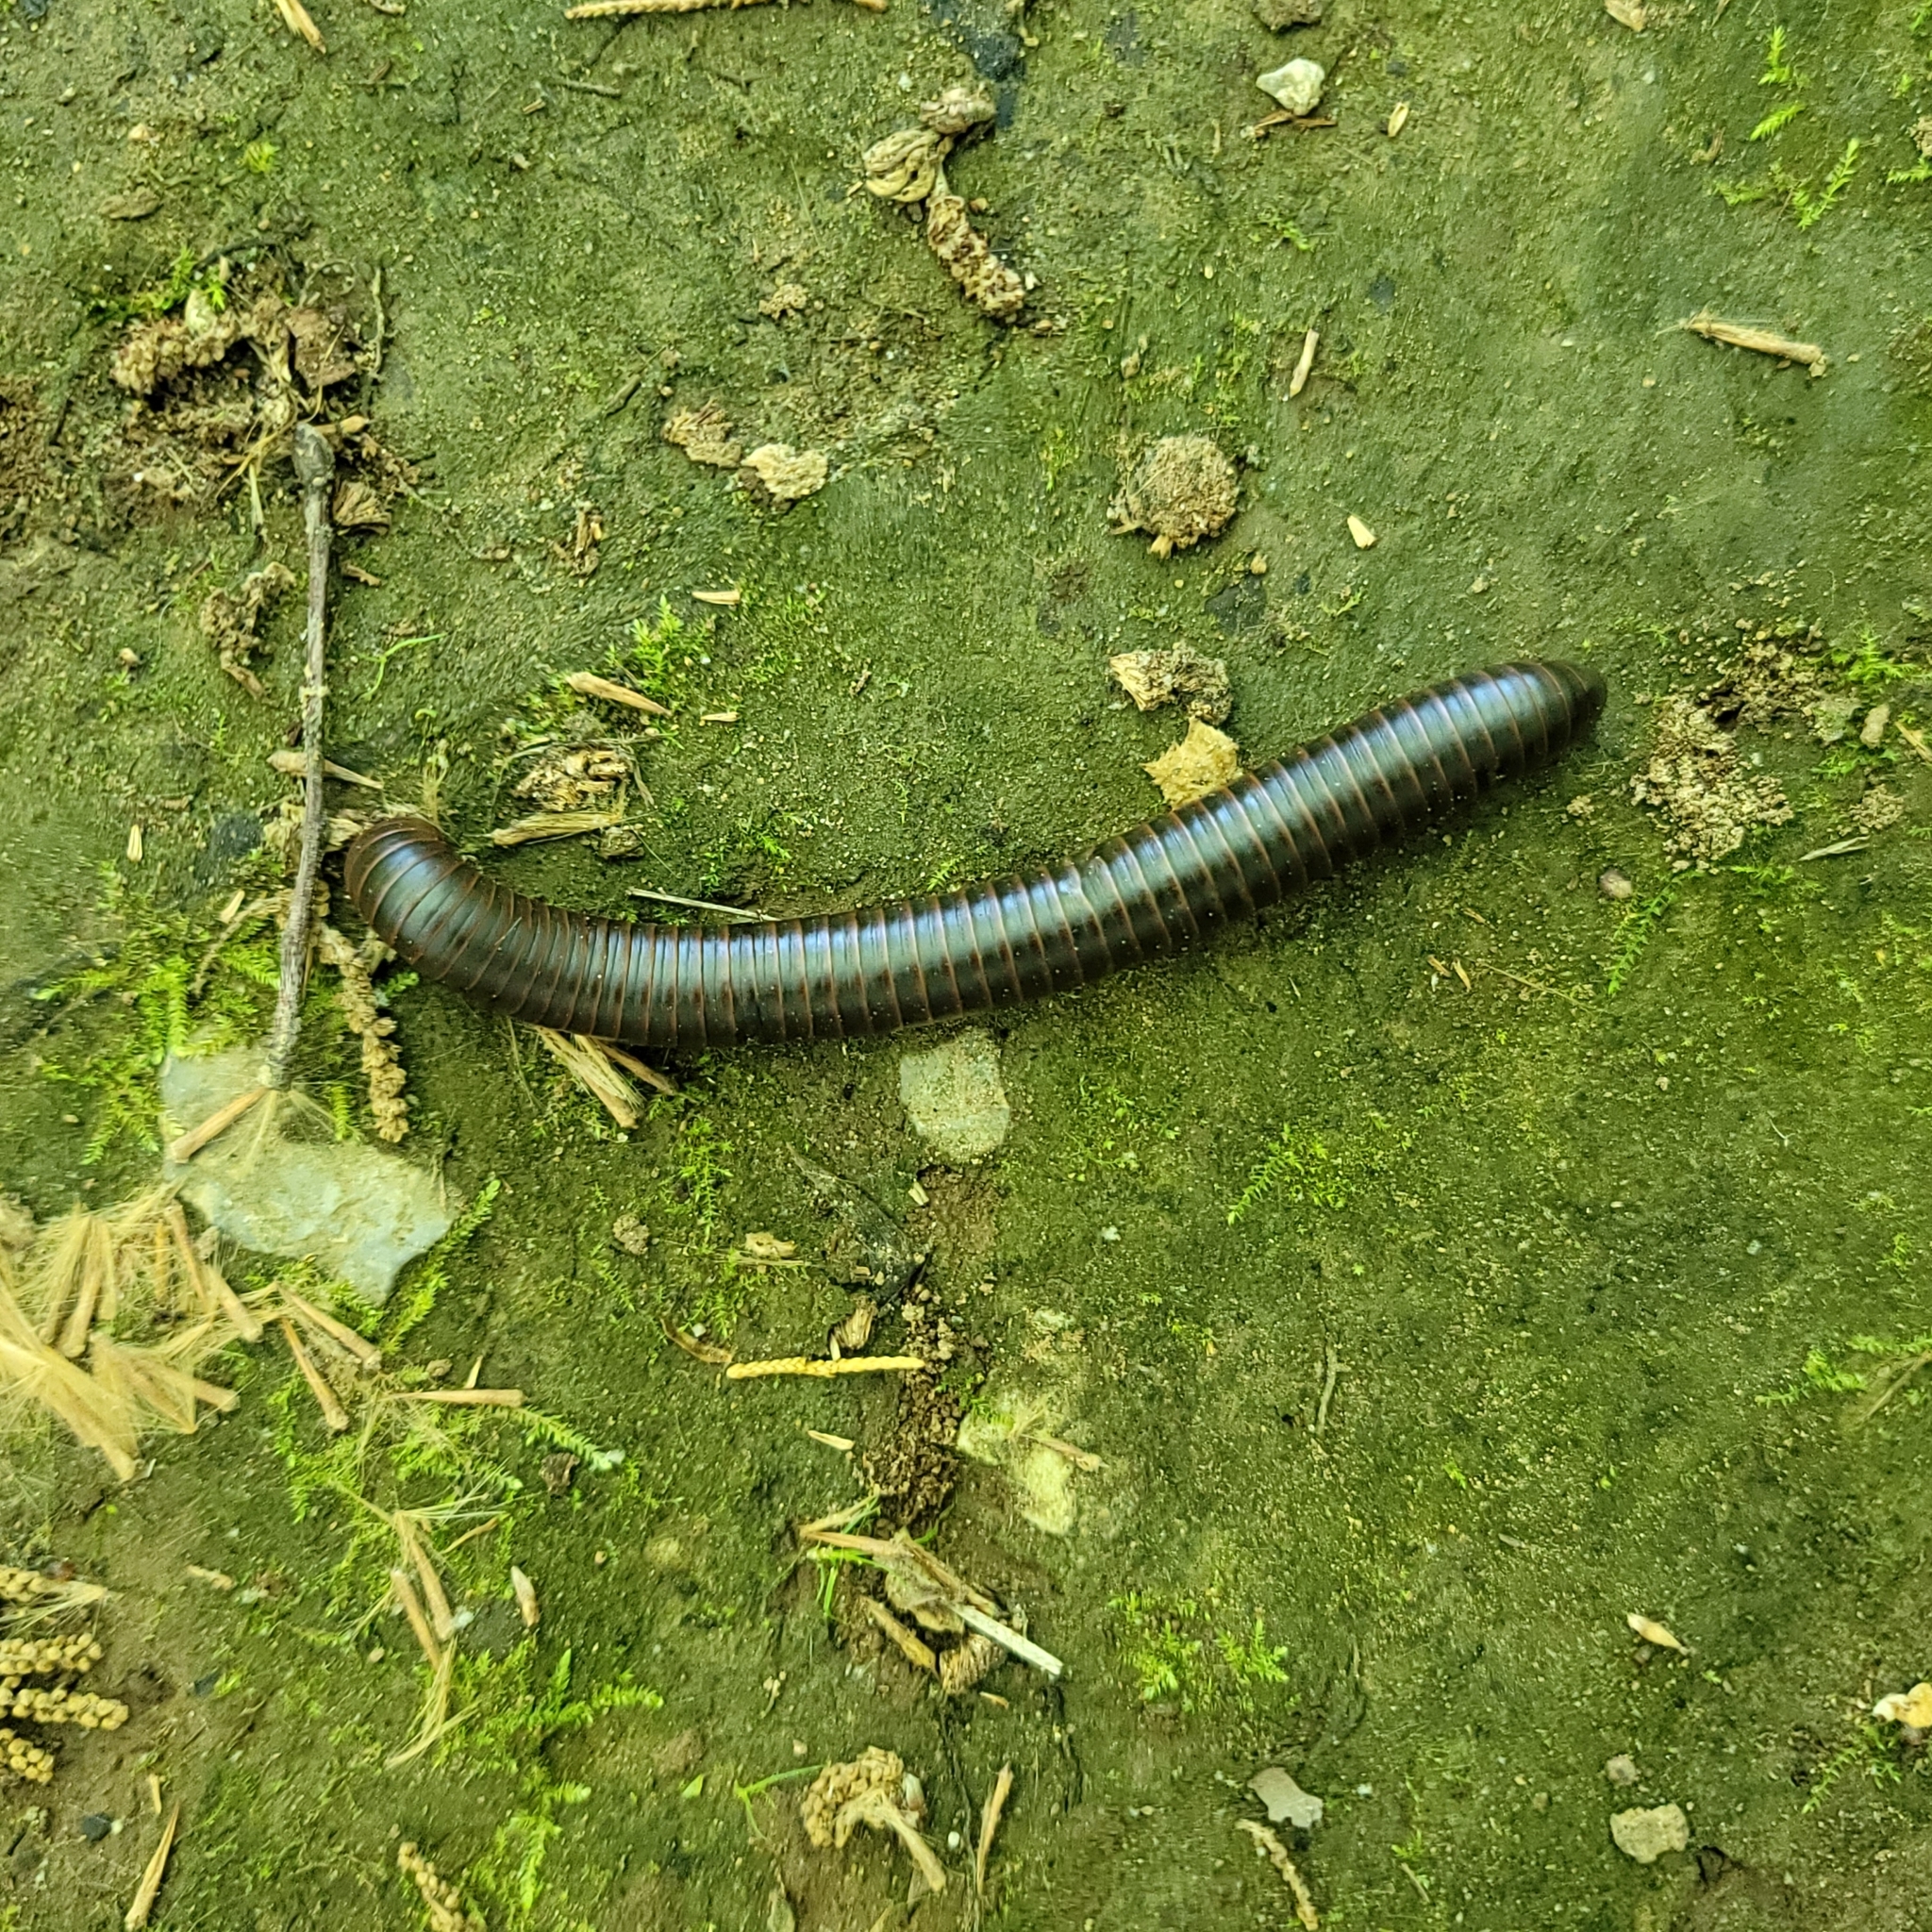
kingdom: Animalia
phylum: Arthropoda
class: Diplopoda
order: Spirobolida
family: Spirobolidae
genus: Narceus
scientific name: Narceus
